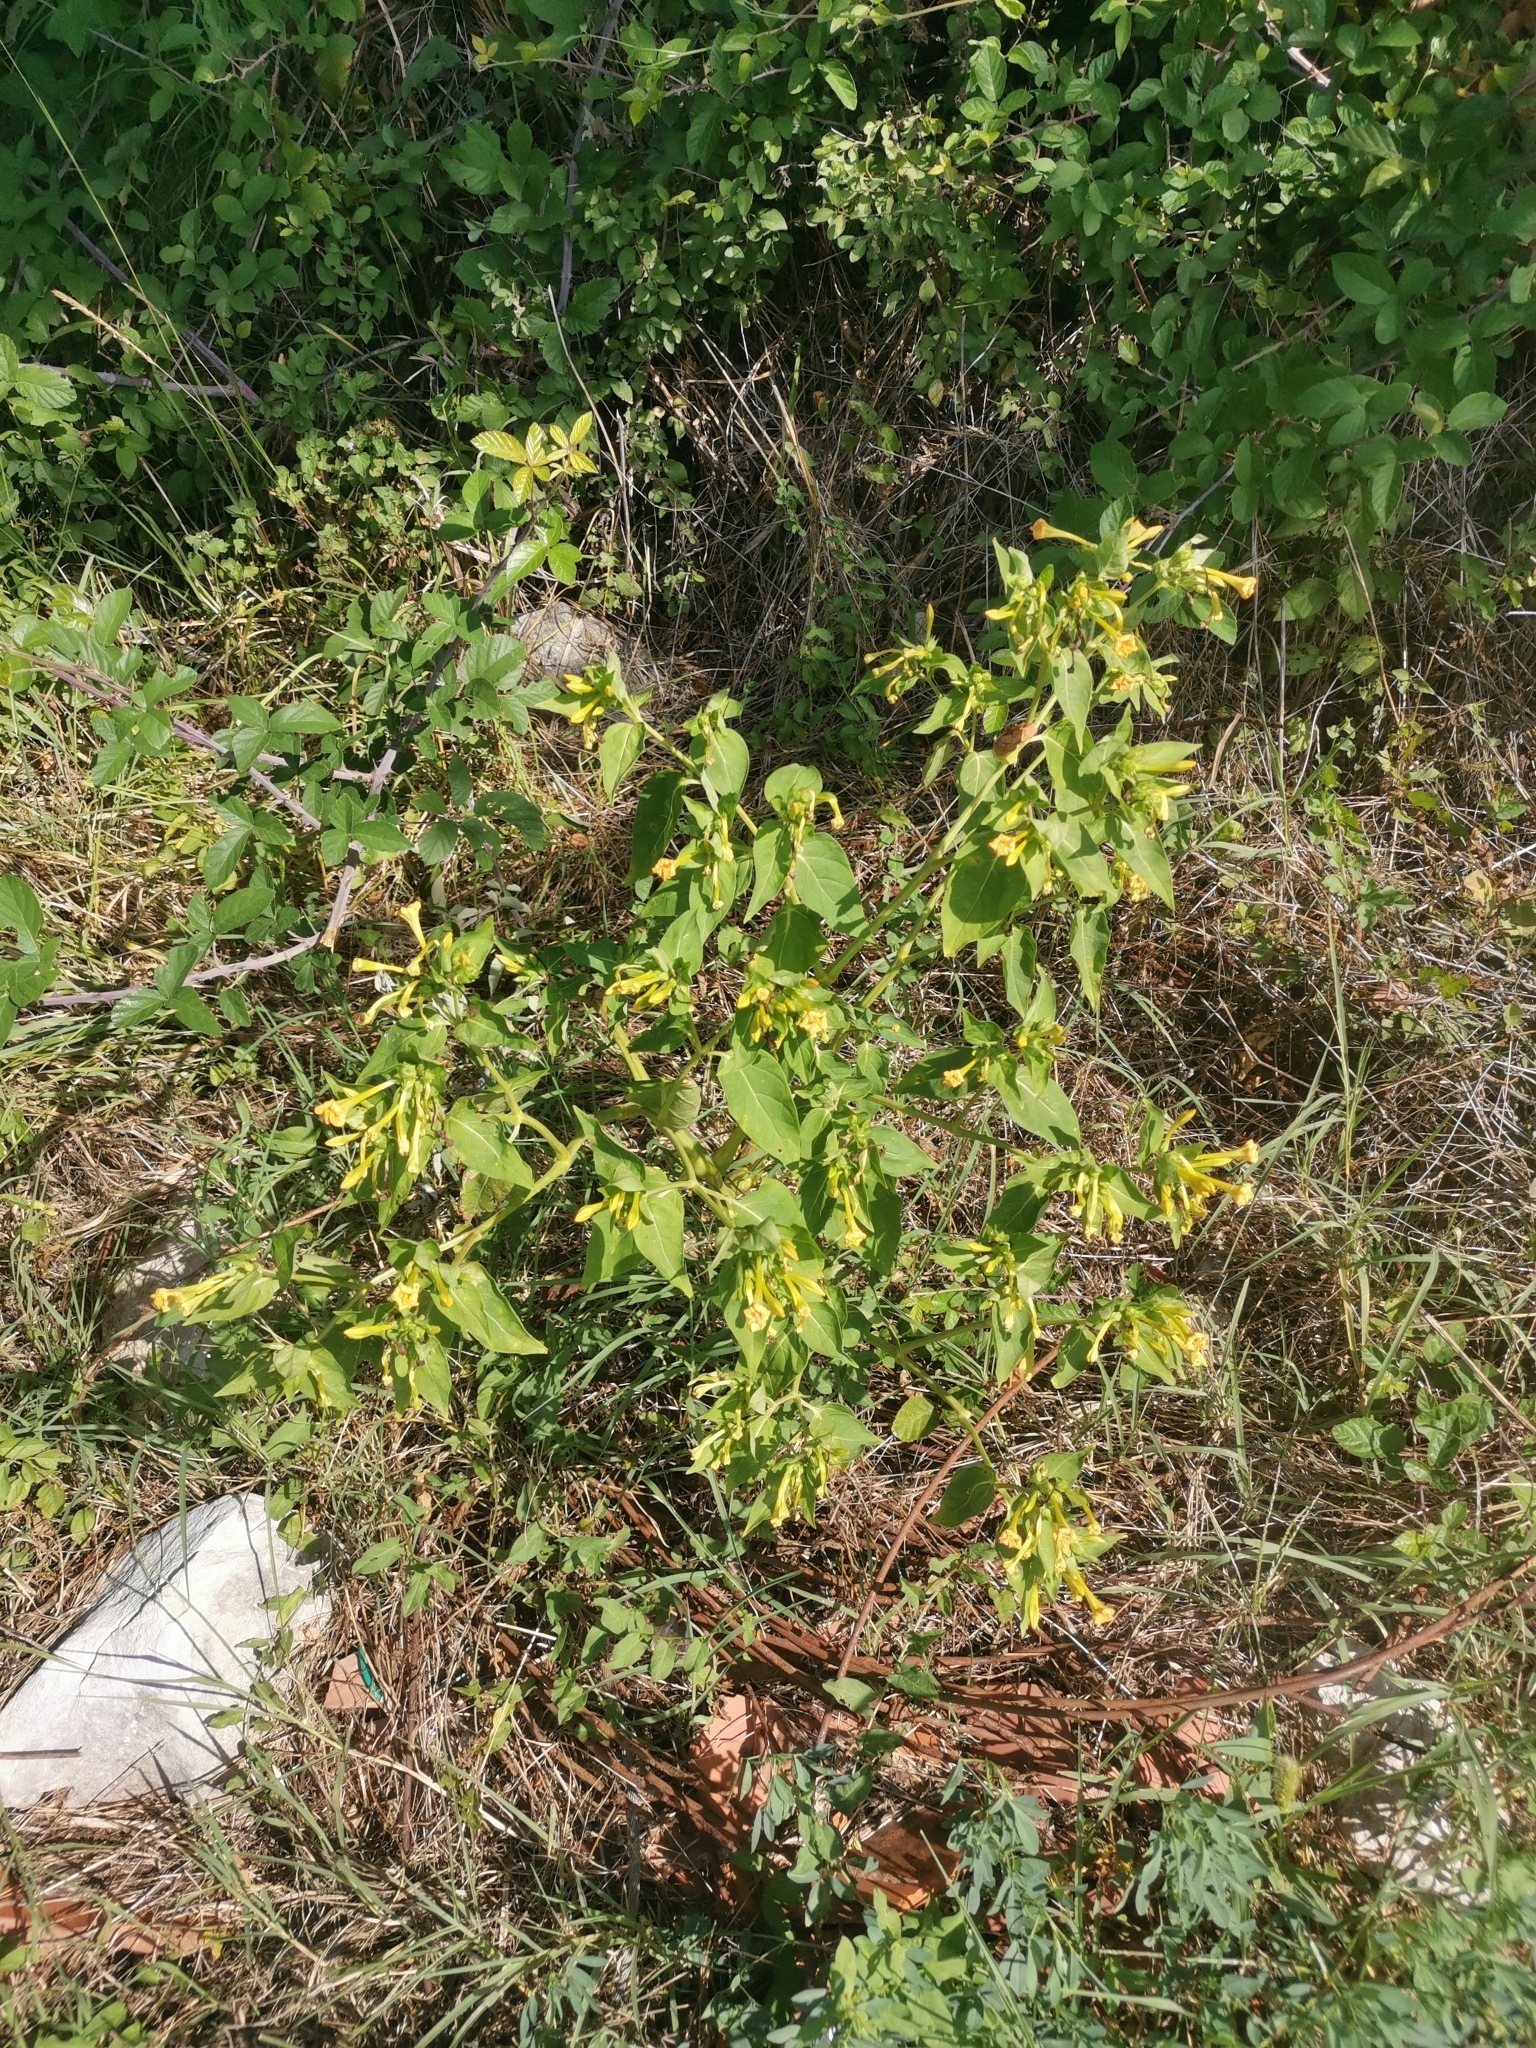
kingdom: Plantae
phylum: Tracheophyta
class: Magnoliopsida
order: Caryophyllales
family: Nyctaginaceae
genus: Mirabilis
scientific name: Mirabilis jalapa
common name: Marvel-of-peru
